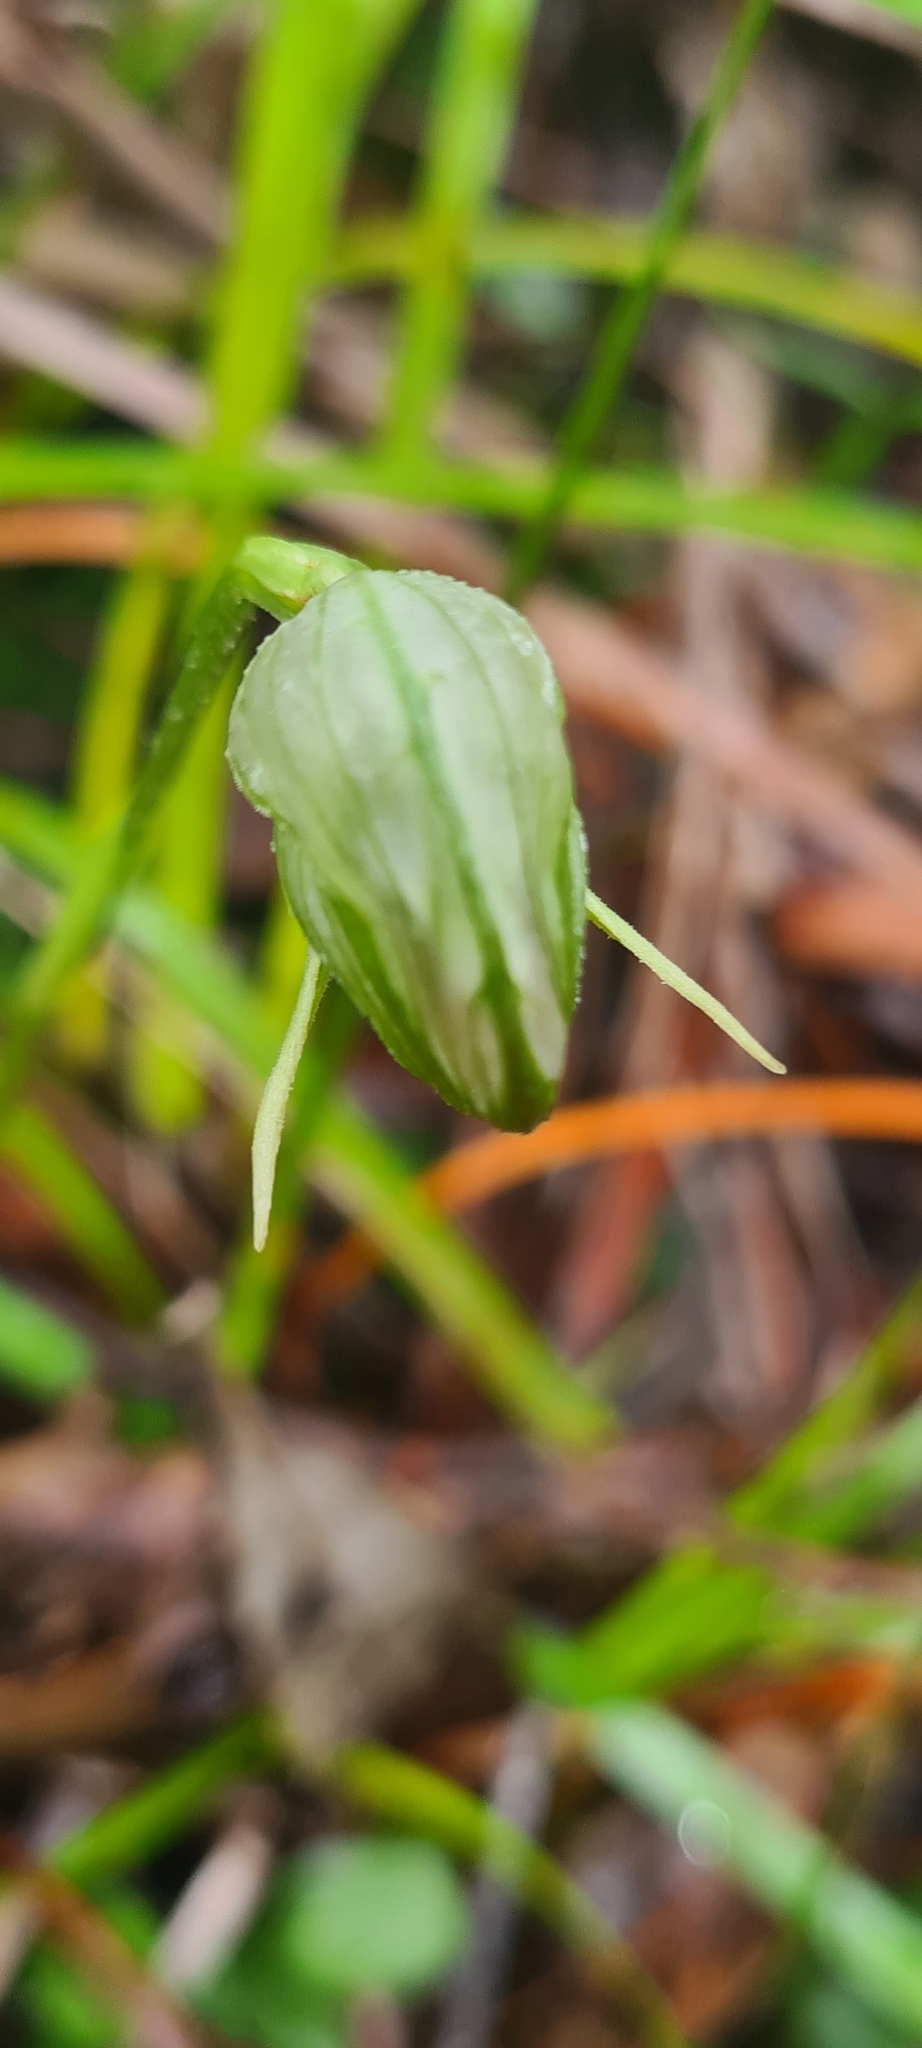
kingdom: Plantae
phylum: Tracheophyta
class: Liliopsida
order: Asparagales
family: Orchidaceae
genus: Pterostylis
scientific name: Pterostylis nutans
